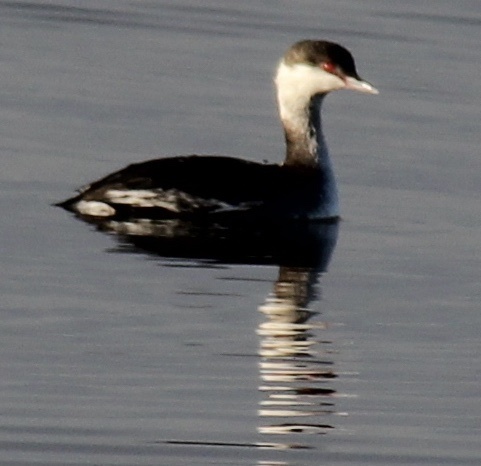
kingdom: Animalia
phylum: Chordata
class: Aves
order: Podicipediformes
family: Podicipedidae
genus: Podiceps
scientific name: Podiceps auritus
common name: Horned grebe
